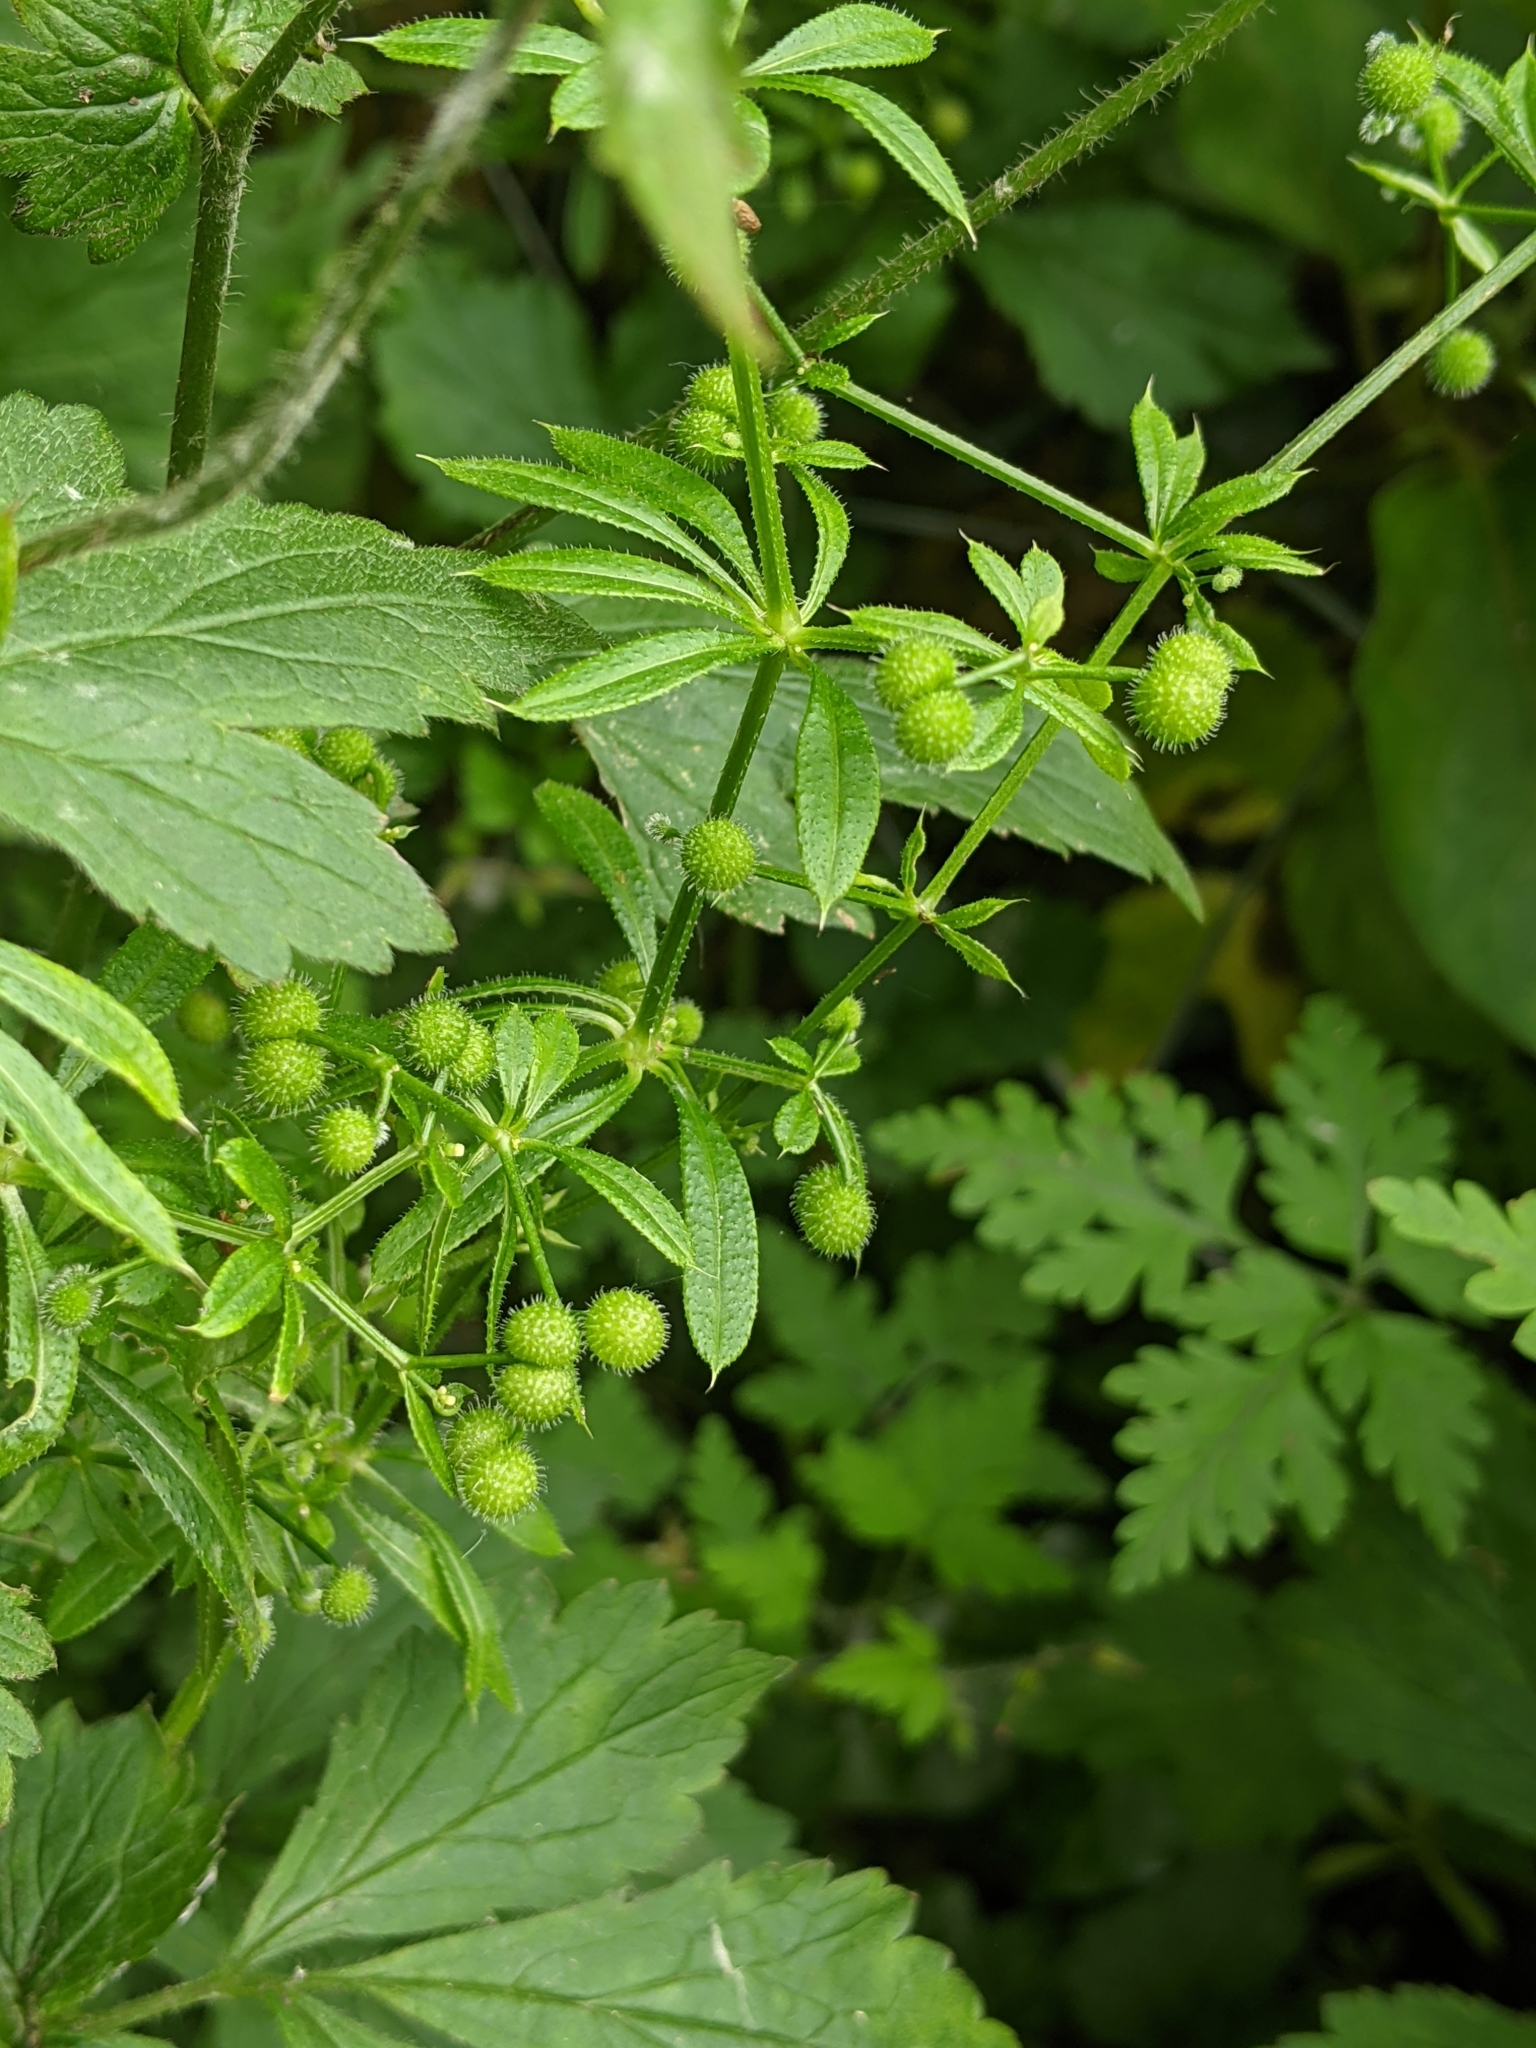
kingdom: Plantae
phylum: Tracheophyta
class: Magnoliopsida
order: Gentianales
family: Rubiaceae
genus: Galium
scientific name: Galium aparine
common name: Cleavers
